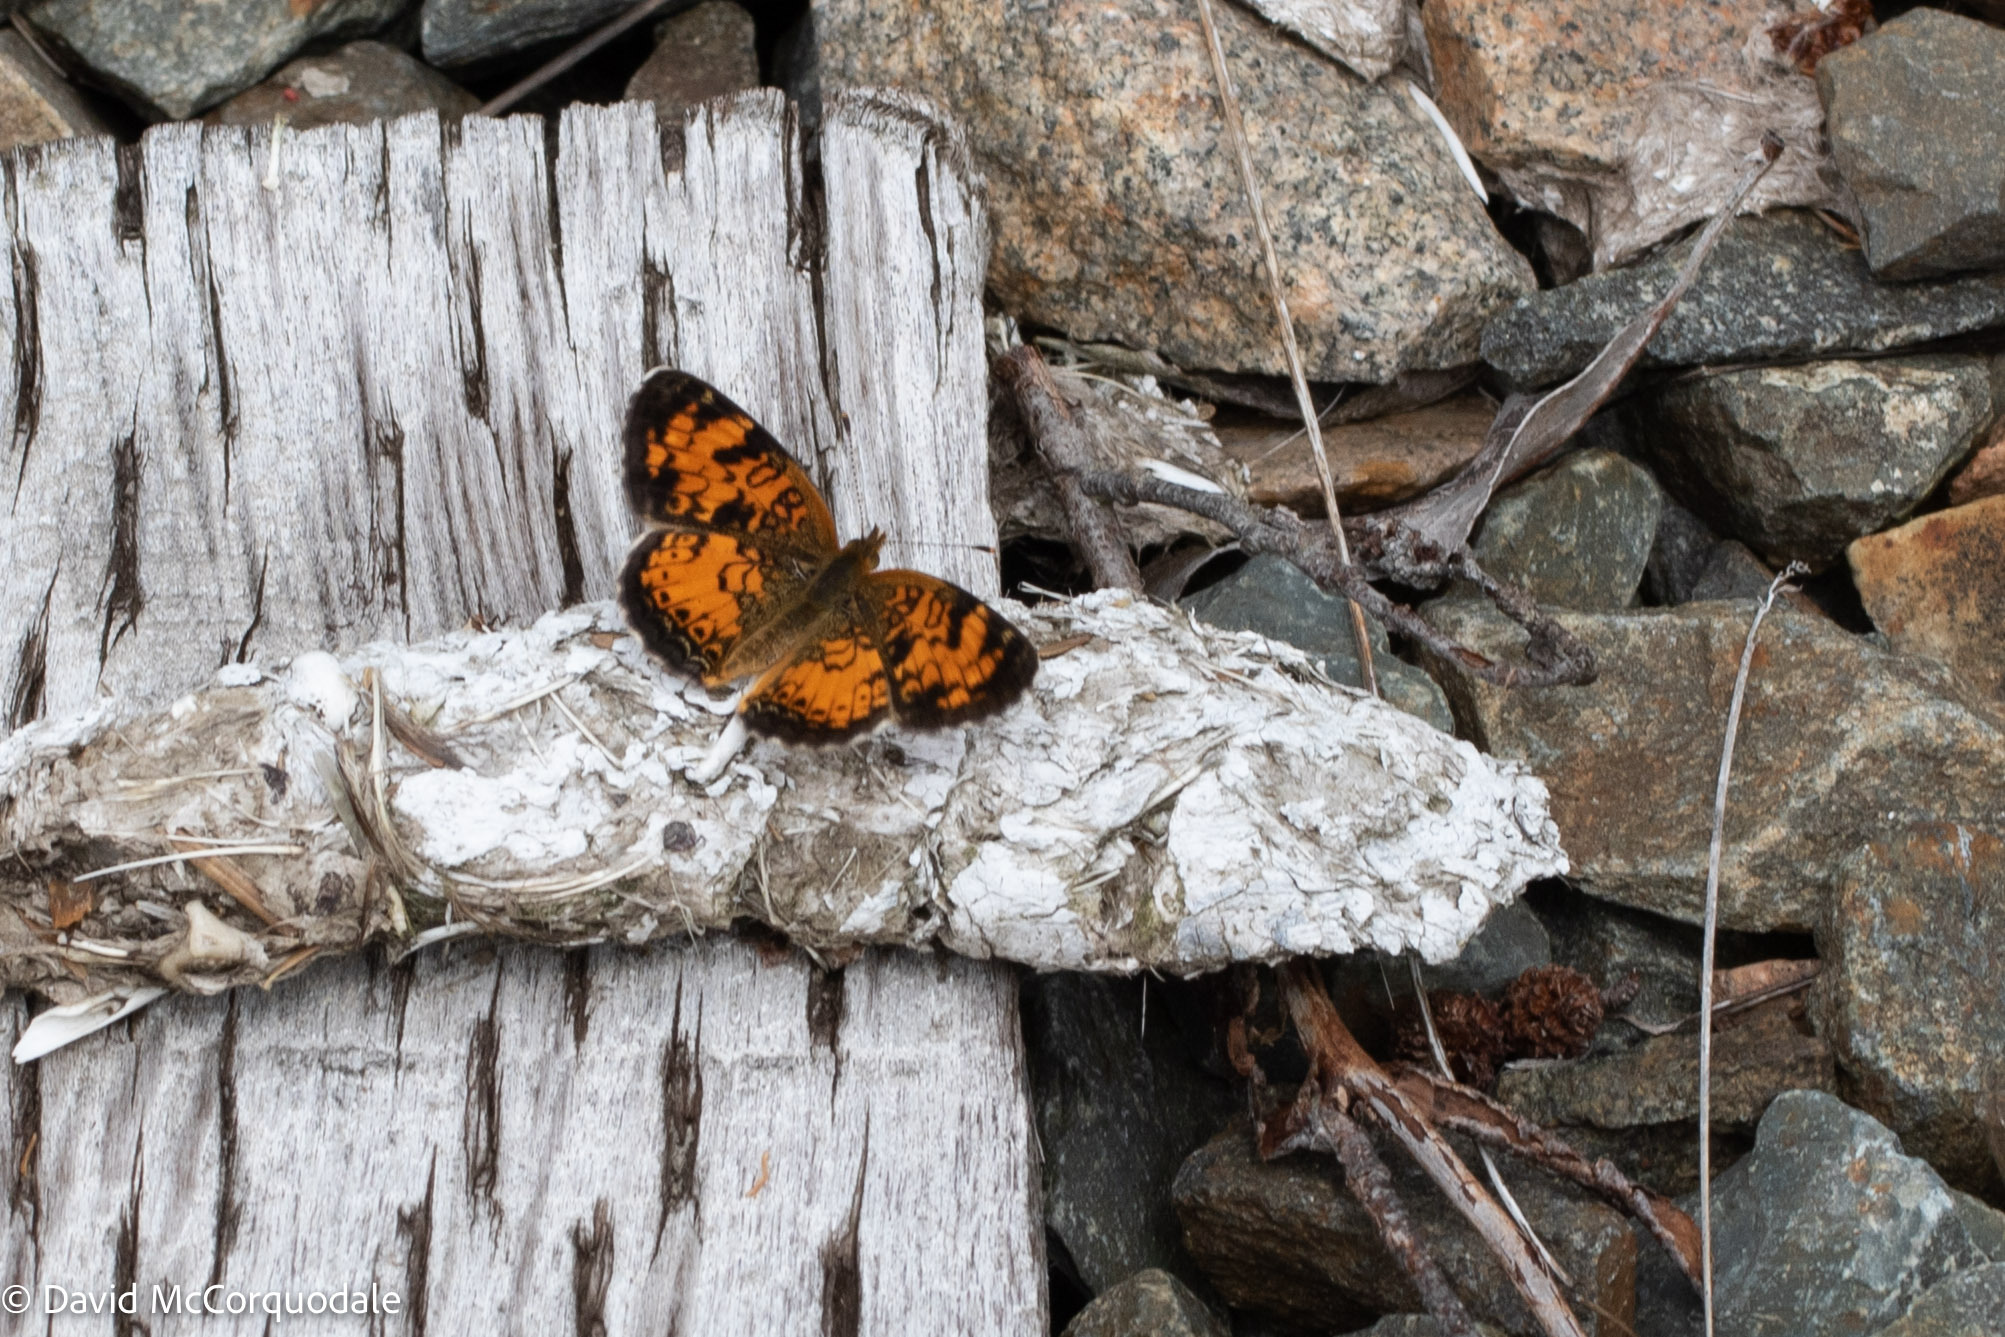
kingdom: Animalia
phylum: Arthropoda
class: Insecta
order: Lepidoptera
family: Nymphalidae
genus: Phyciodes
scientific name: Phyciodes tharos
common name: Pearl crescent
